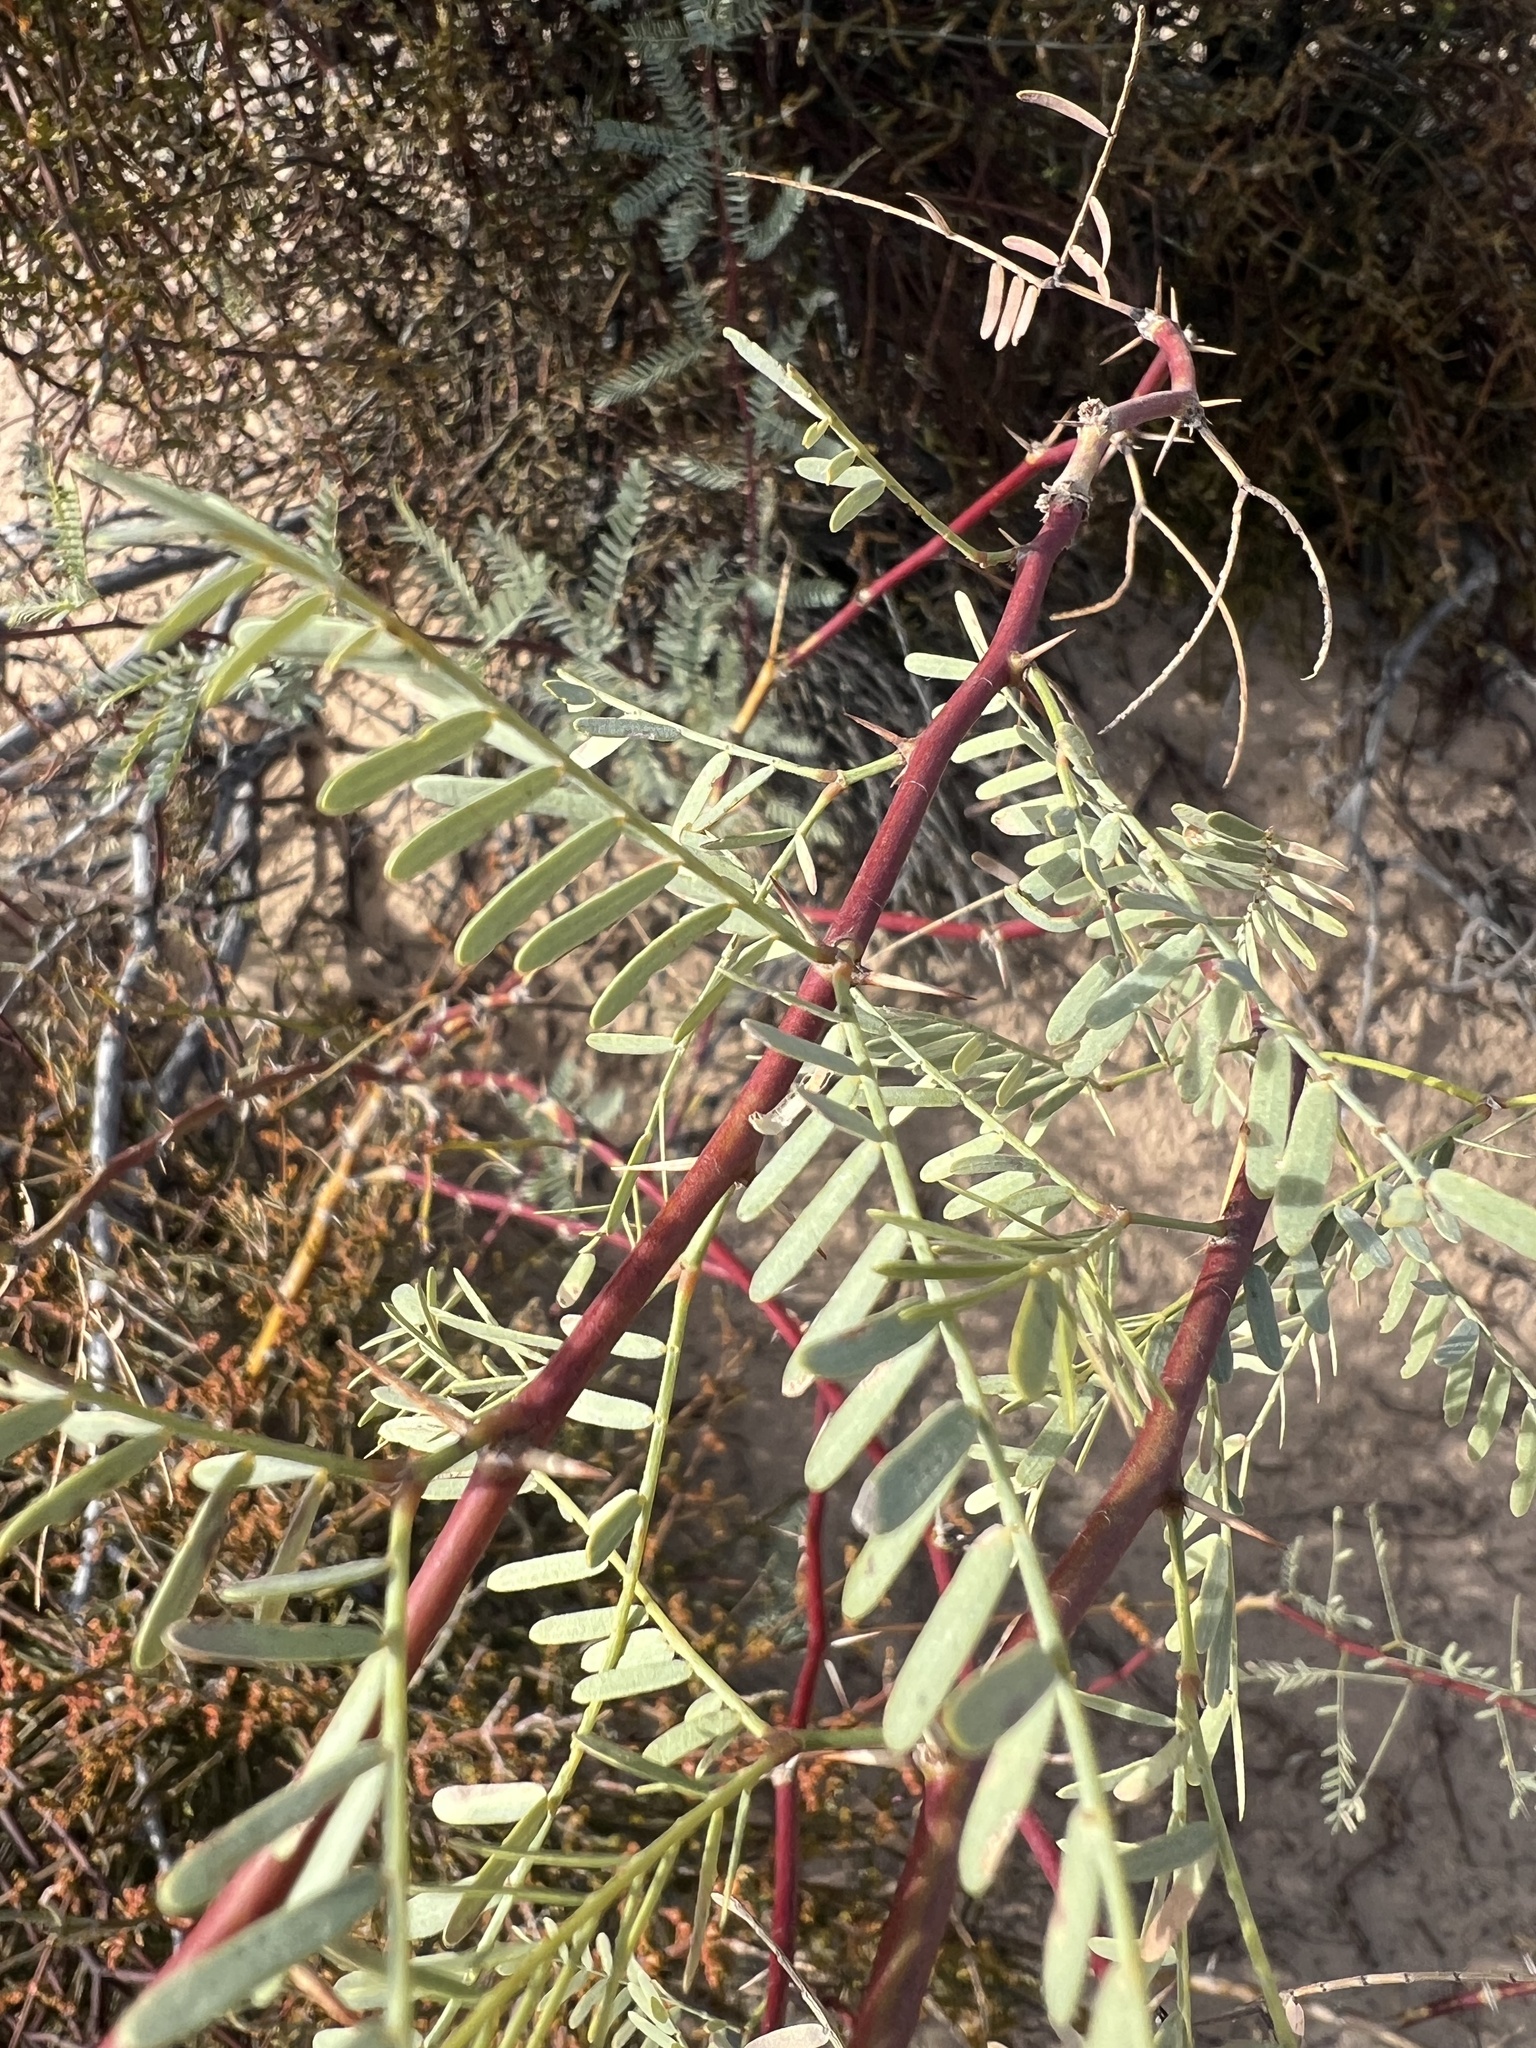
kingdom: Plantae
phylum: Tracheophyta
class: Magnoliopsida
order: Fabales
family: Fabaceae
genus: Prosopis
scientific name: Prosopis pubescens
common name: Screw-bean
